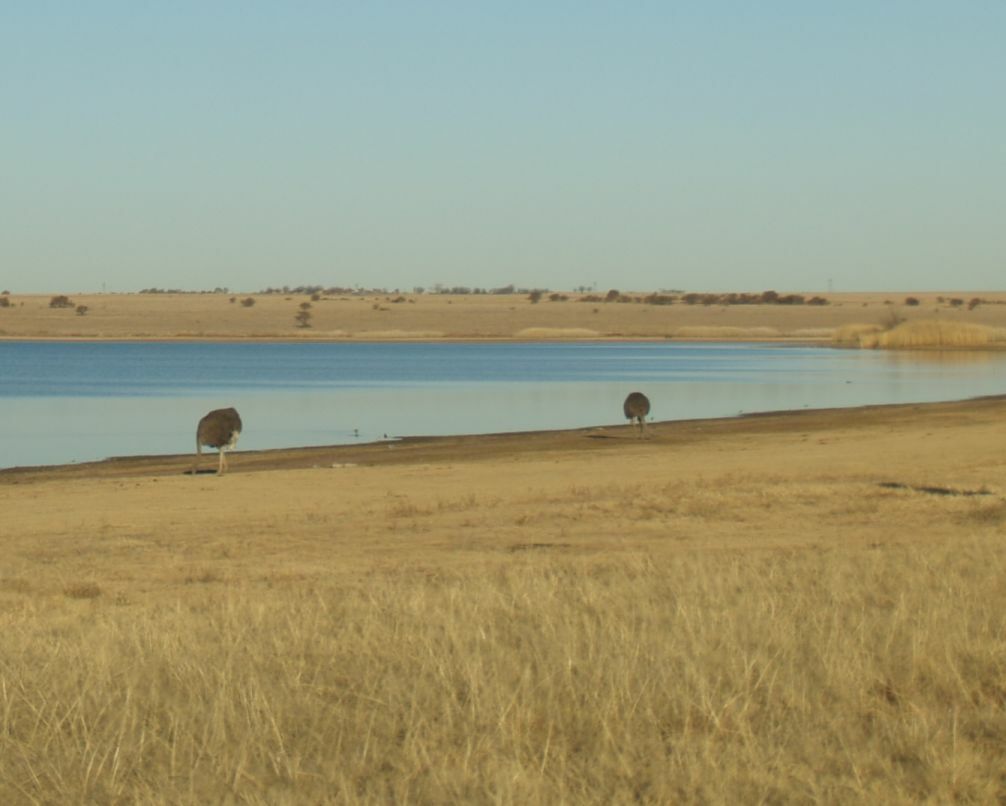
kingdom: Animalia
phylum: Chordata
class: Aves
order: Struthioniformes
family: Struthionidae
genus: Struthio
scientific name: Struthio camelus
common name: Common ostrich
